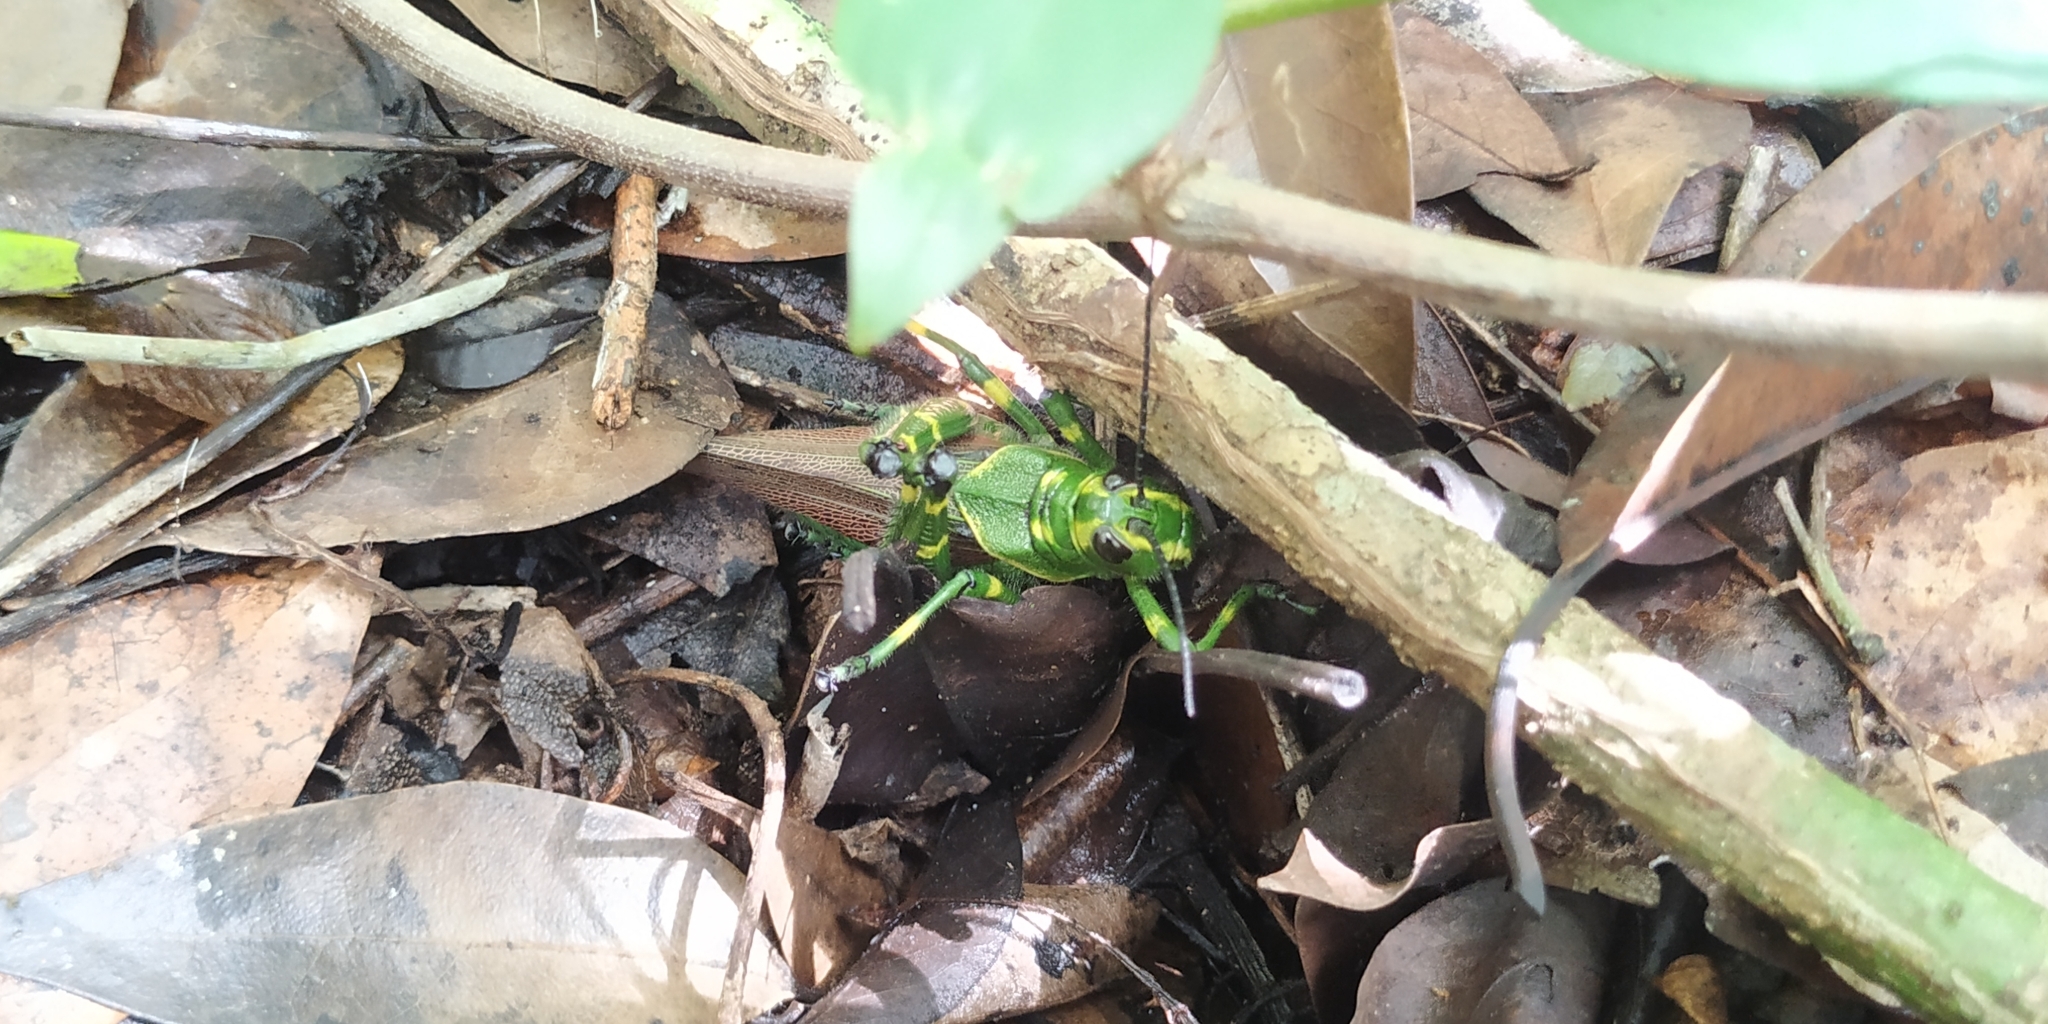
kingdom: Animalia
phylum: Arthropoda
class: Insecta
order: Orthoptera
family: Romaleidae
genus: Chromacris
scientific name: Chromacris miles
